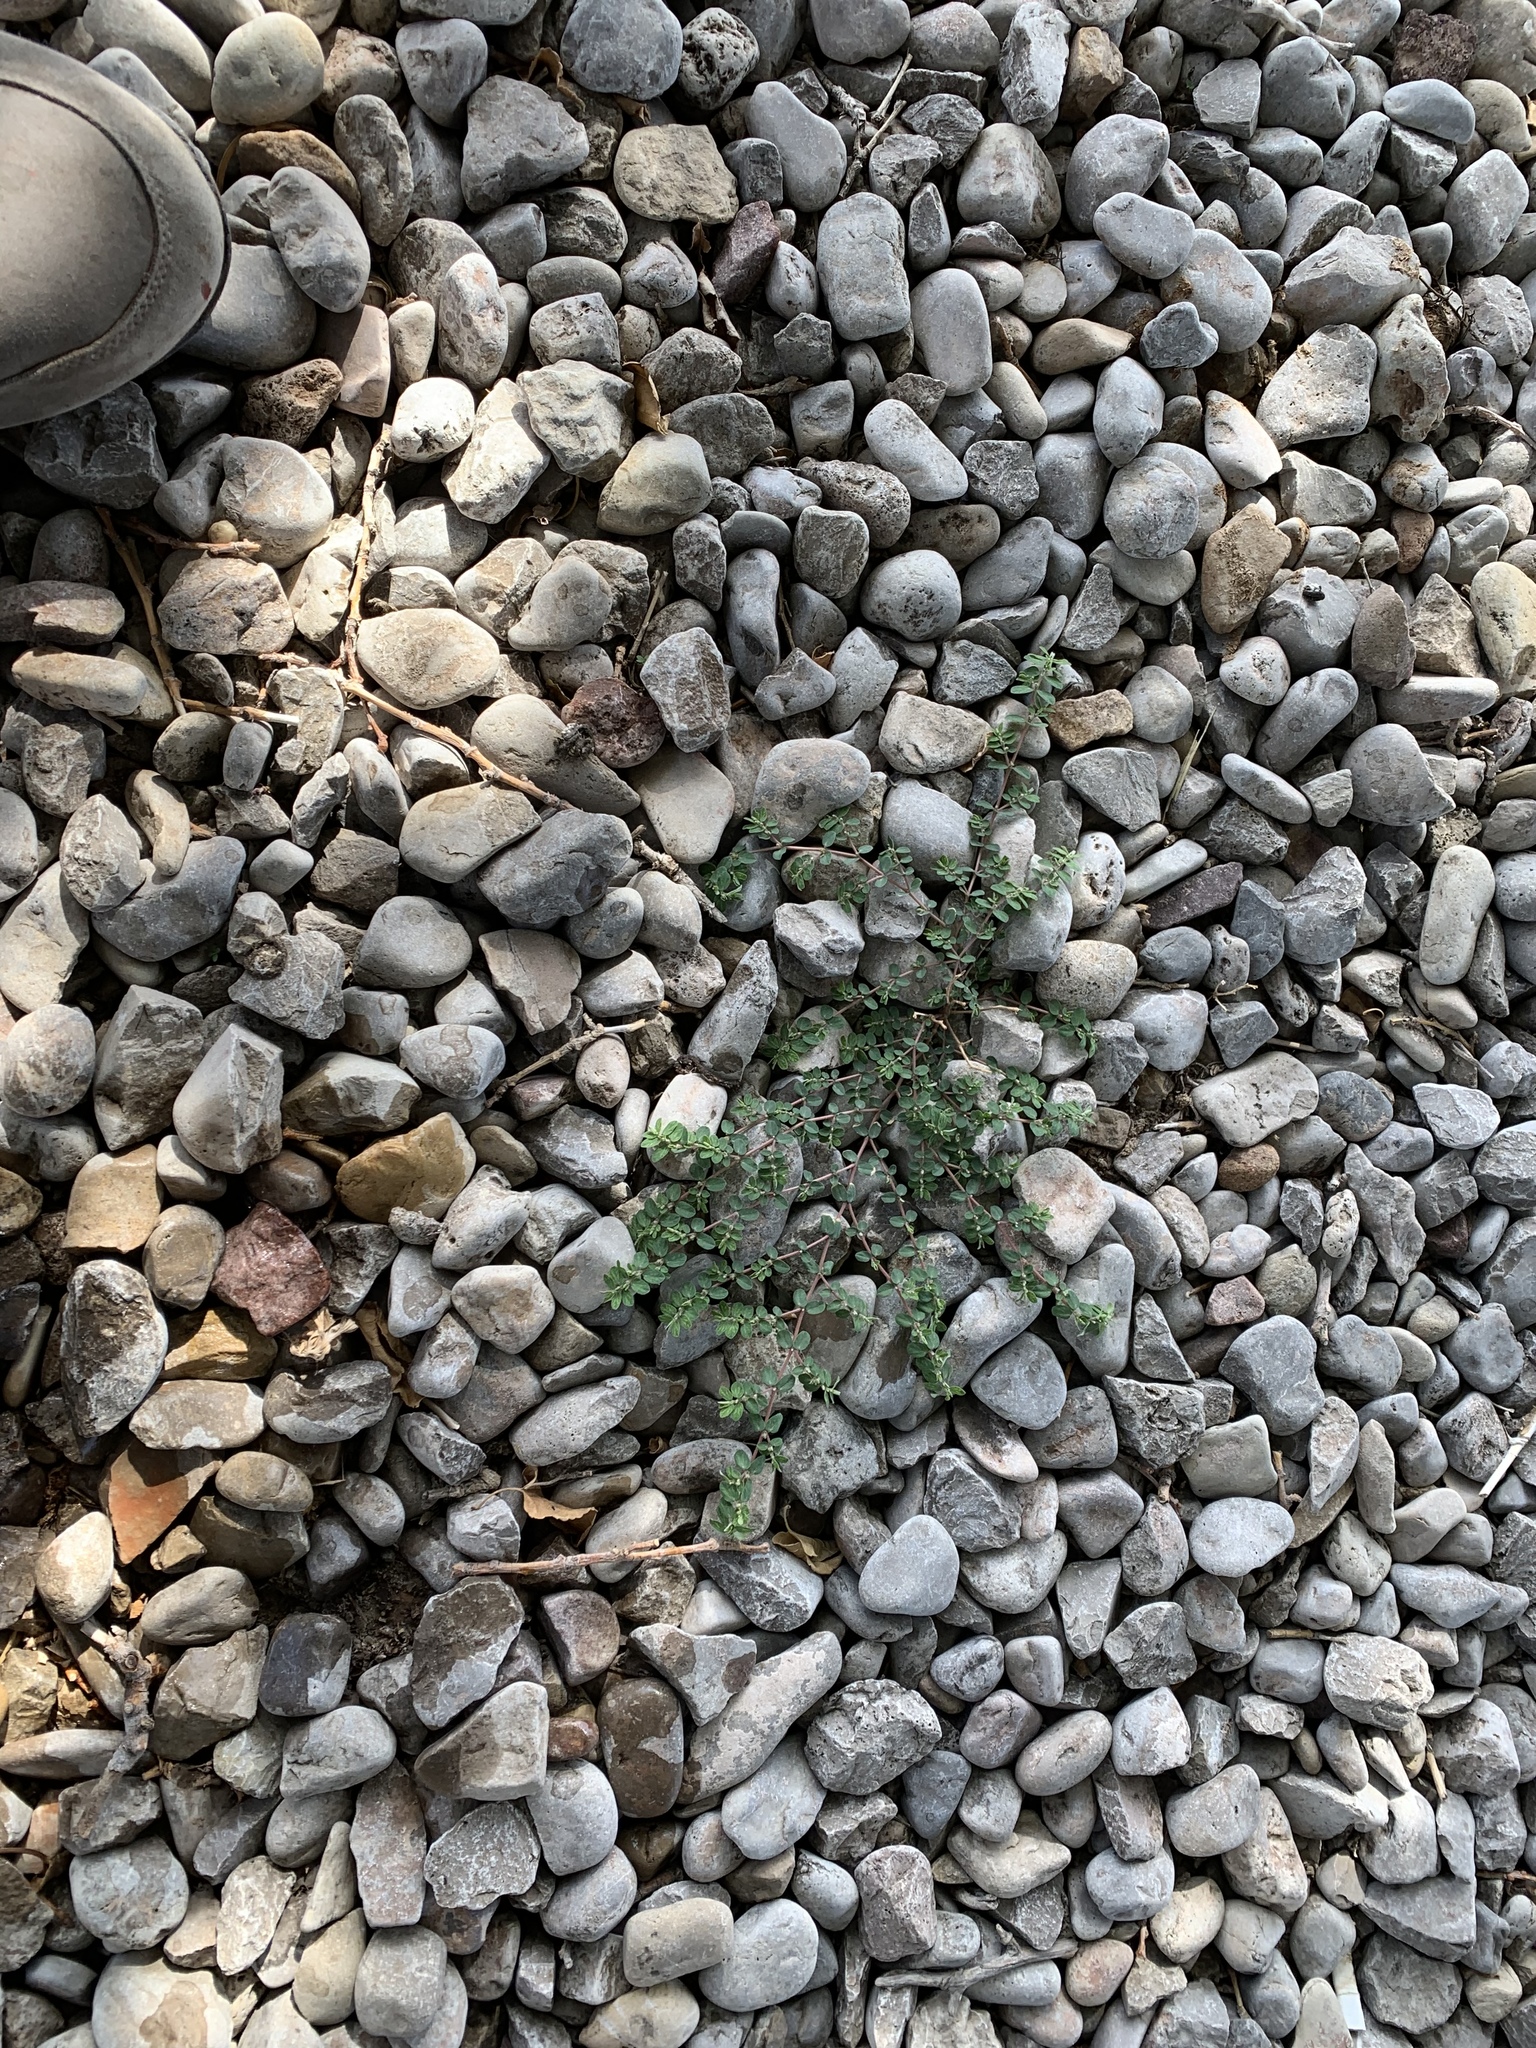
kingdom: Plantae
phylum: Tracheophyta
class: Magnoliopsida
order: Malpighiales
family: Euphorbiaceae
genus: Euphorbia
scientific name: Euphorbia prostrata
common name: Prostrate sandmat
